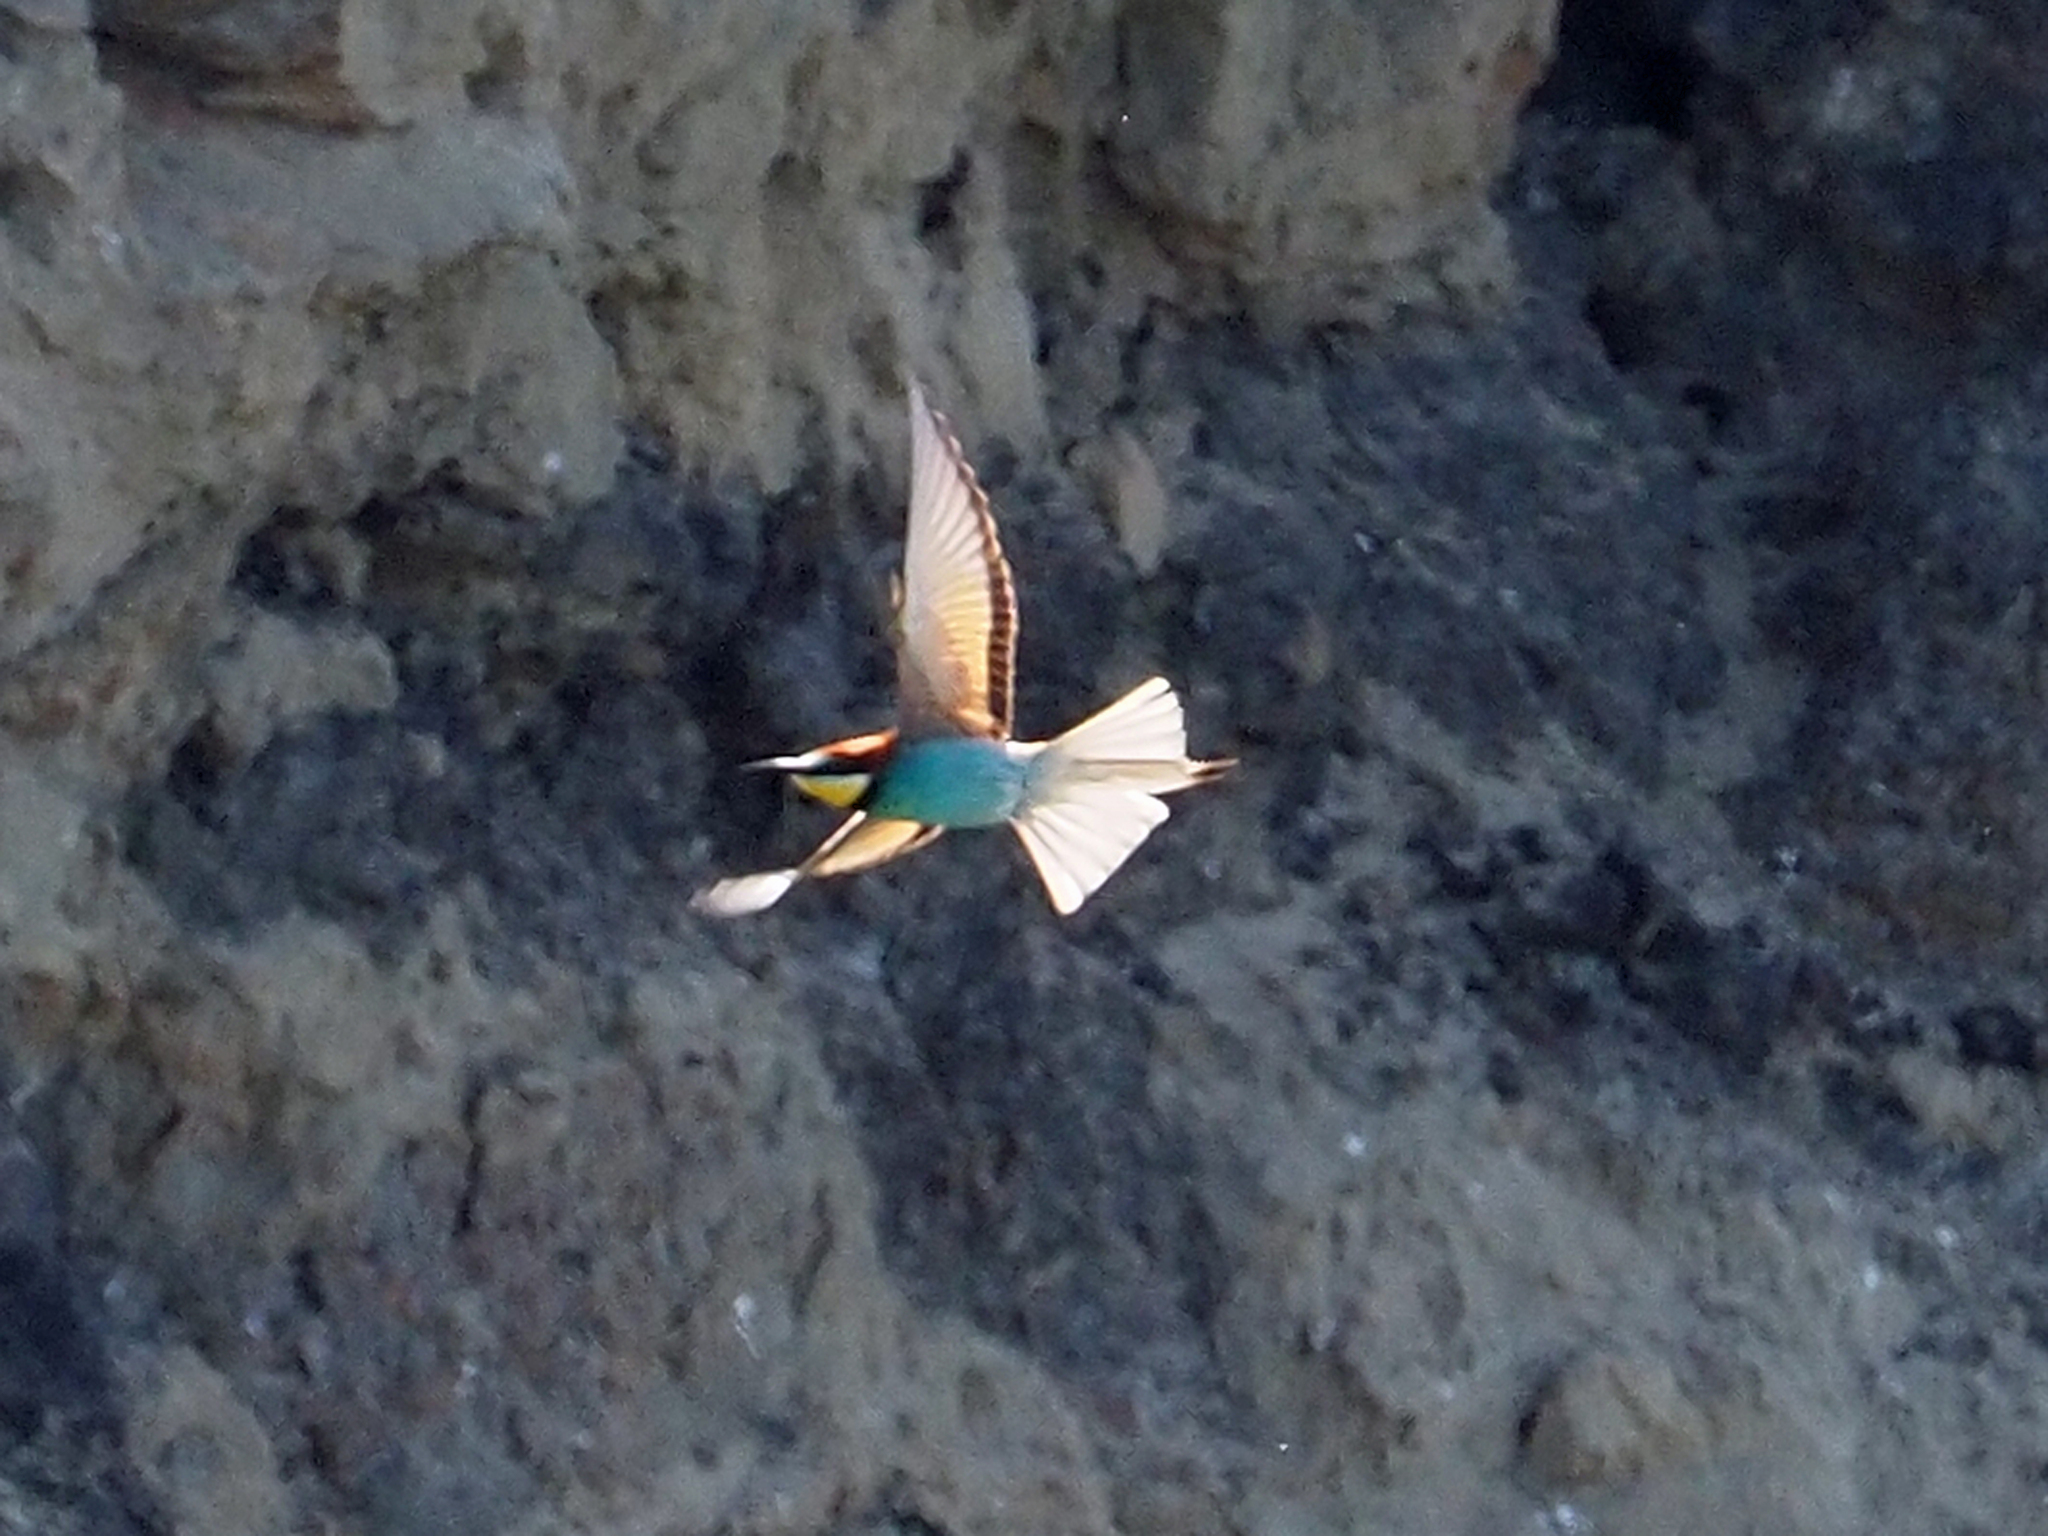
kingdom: Animalia
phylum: Chordata
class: Aves
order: Coraciiformes
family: Meropidae
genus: Merops
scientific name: Merops apiaster
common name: European bee-eater
